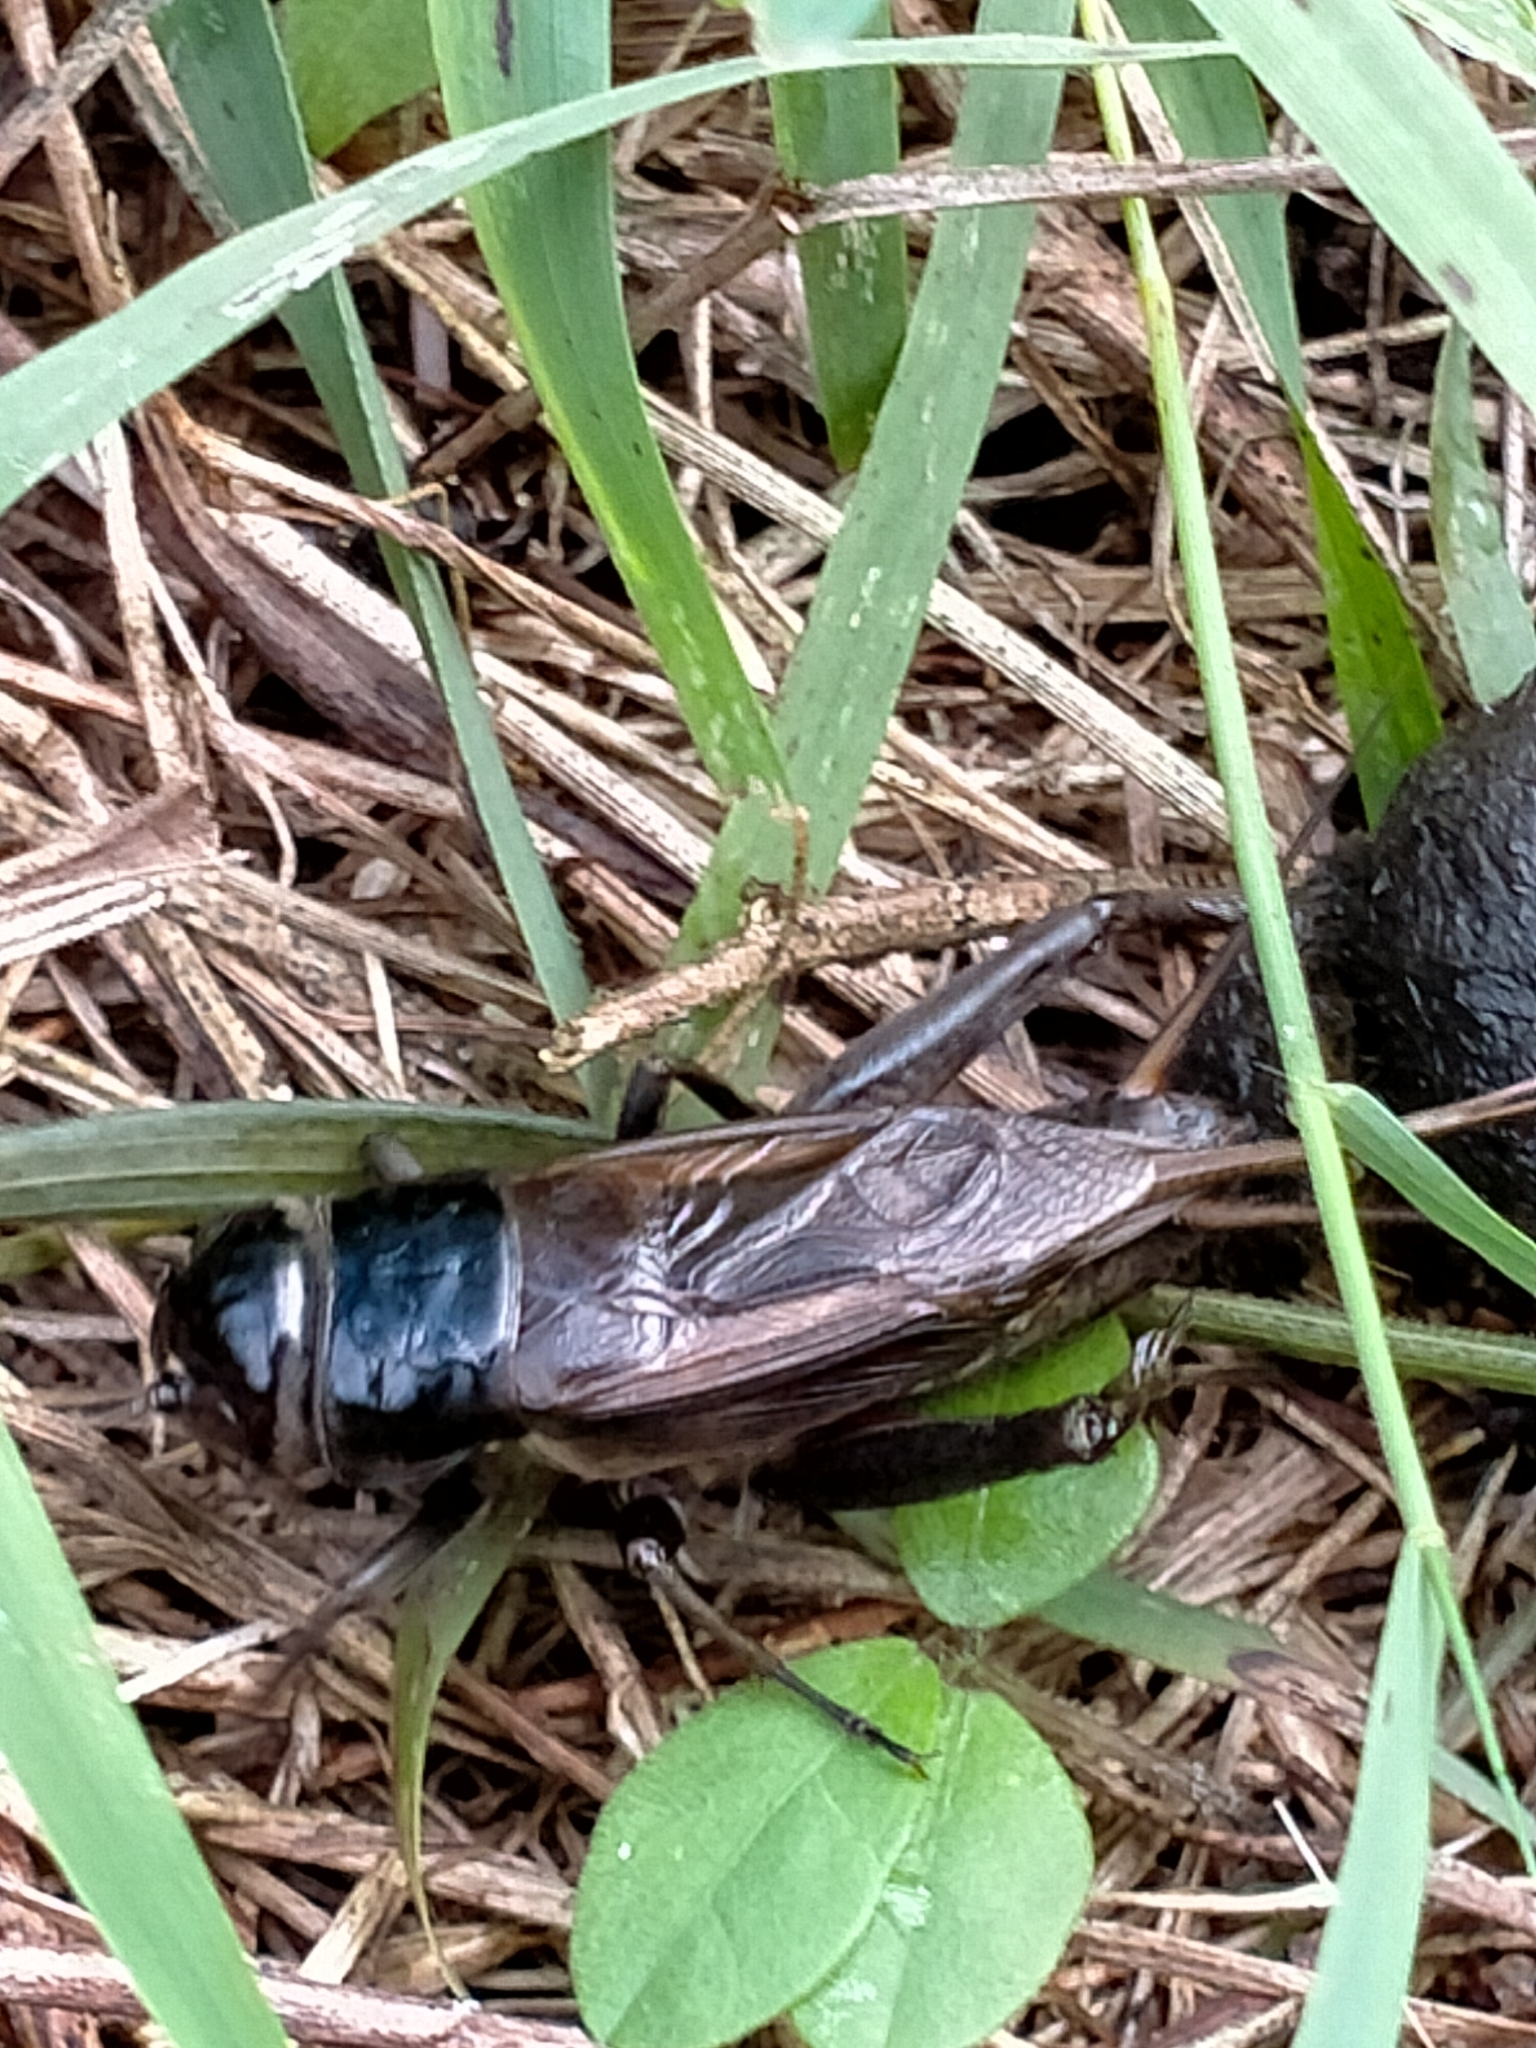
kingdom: Animalia
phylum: Arthropoda
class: Insecta
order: Orthoptera
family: Gryllidae
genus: Teleogryllus
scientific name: Teleogryllus commodus
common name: Black field cricket
